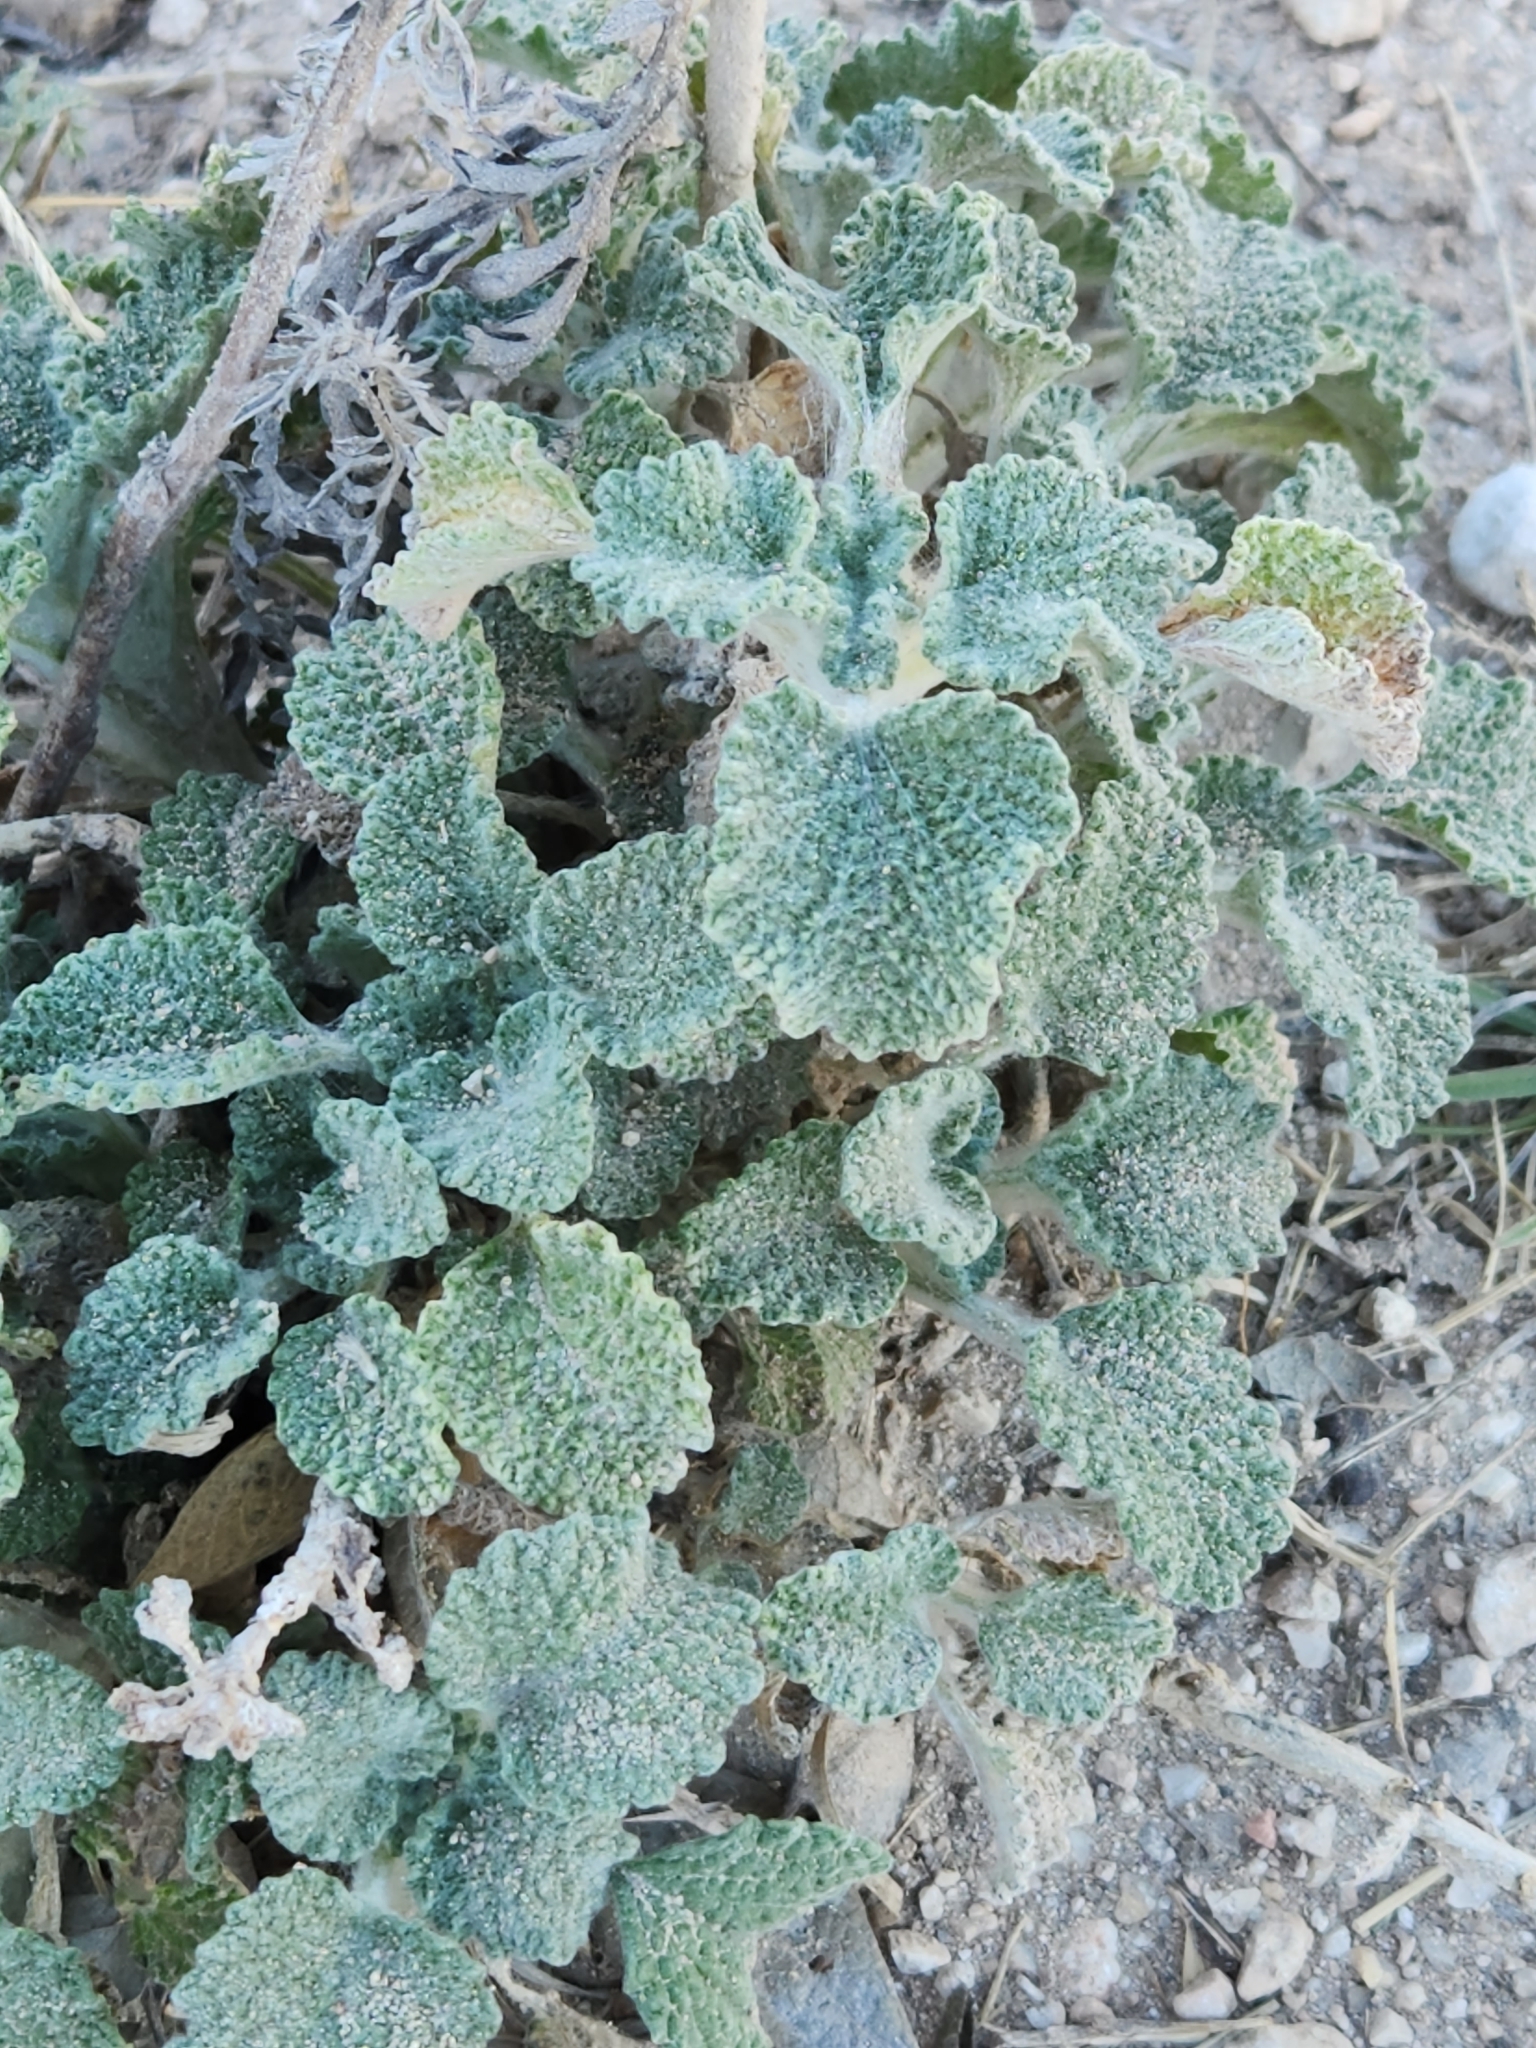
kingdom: Plantae
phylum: Tracheophyta
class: Magnoliopsida
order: Lamiales
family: Lamiaceae
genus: Marrubium
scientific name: Marrubium vulgare
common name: Horehound
